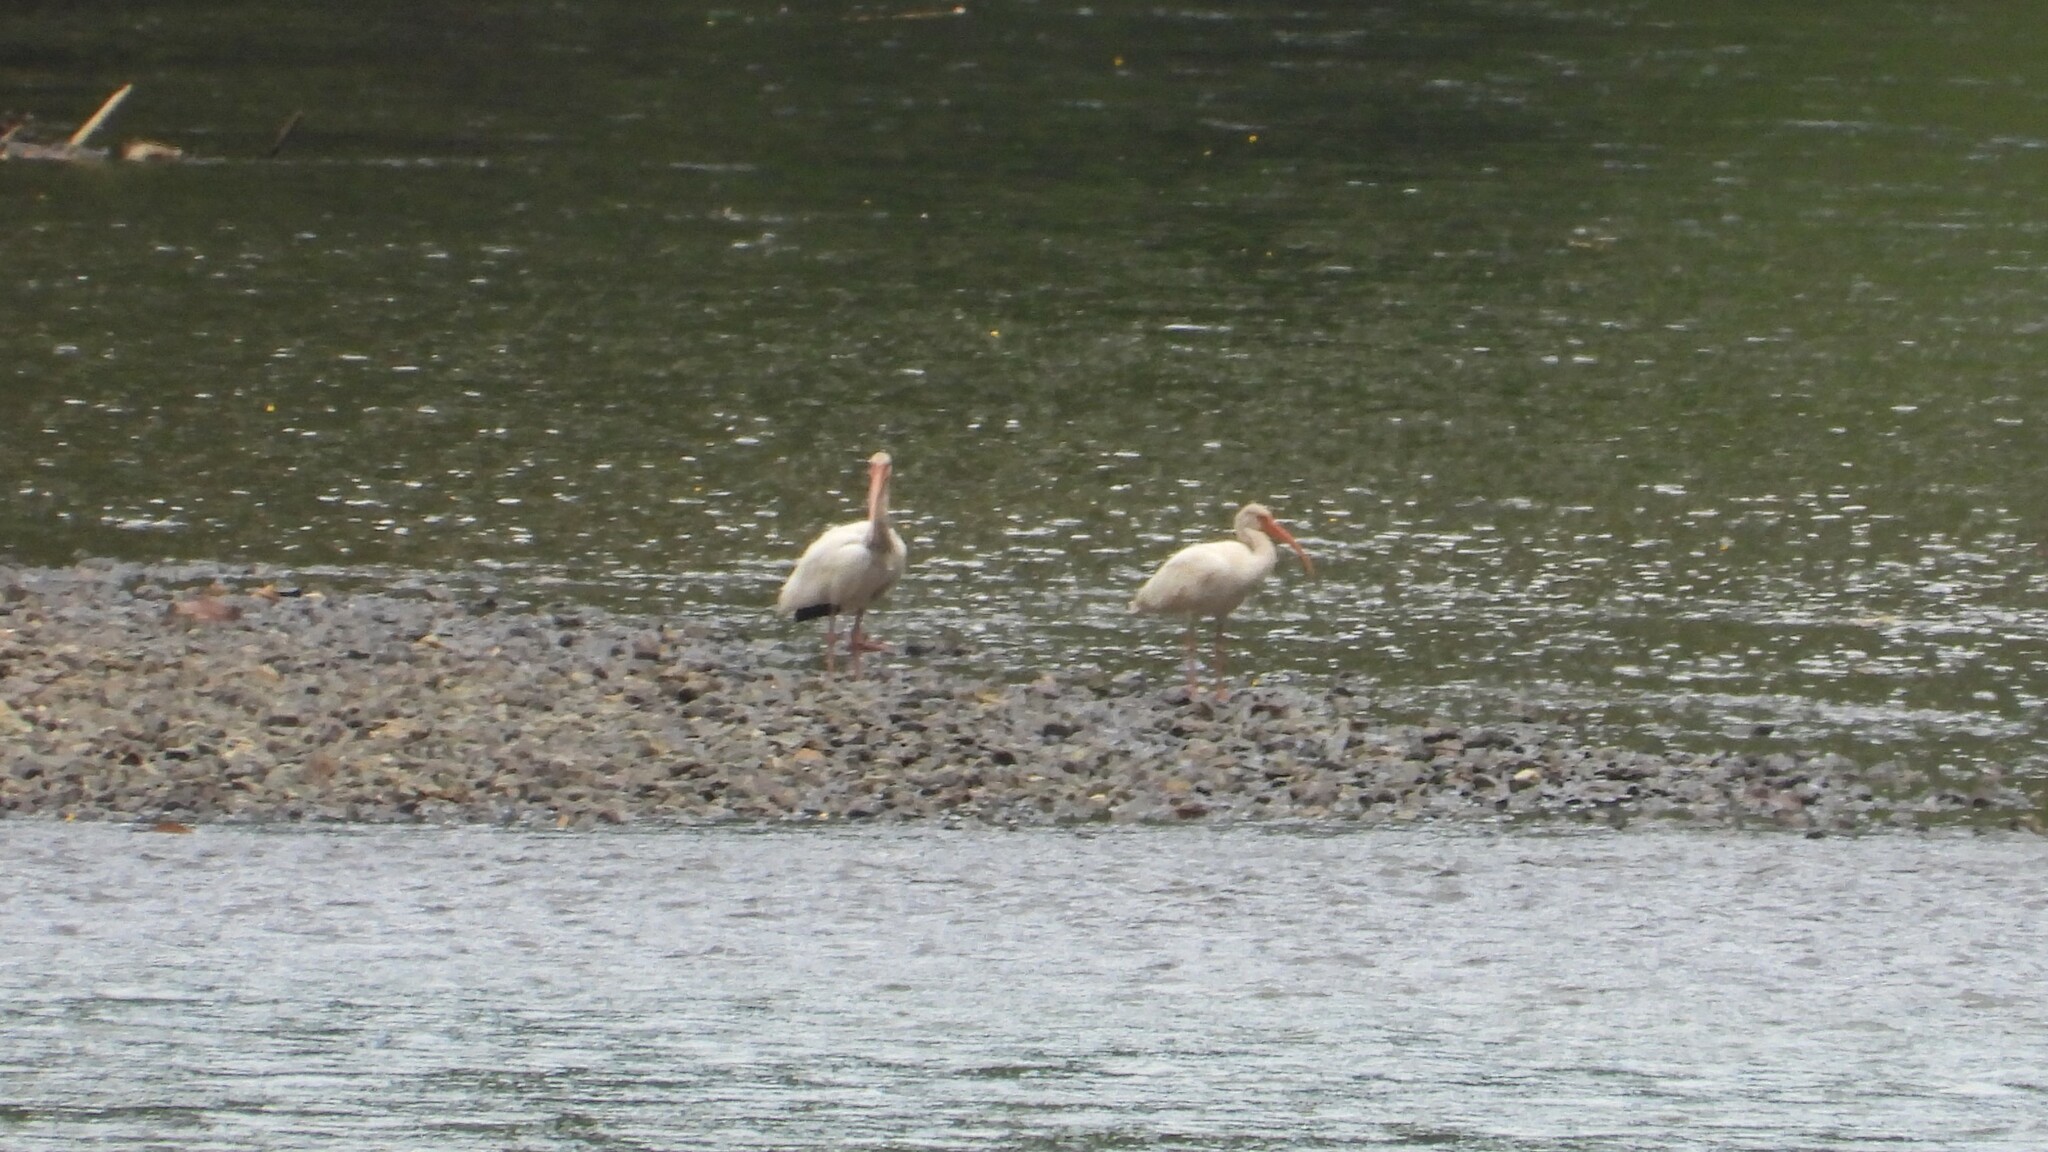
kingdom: Animalia
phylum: Chordata
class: Aves
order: Pelecaniformes
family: Threskiornithidae
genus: Eudocimus
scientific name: Eudocimus albus
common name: White ibis
